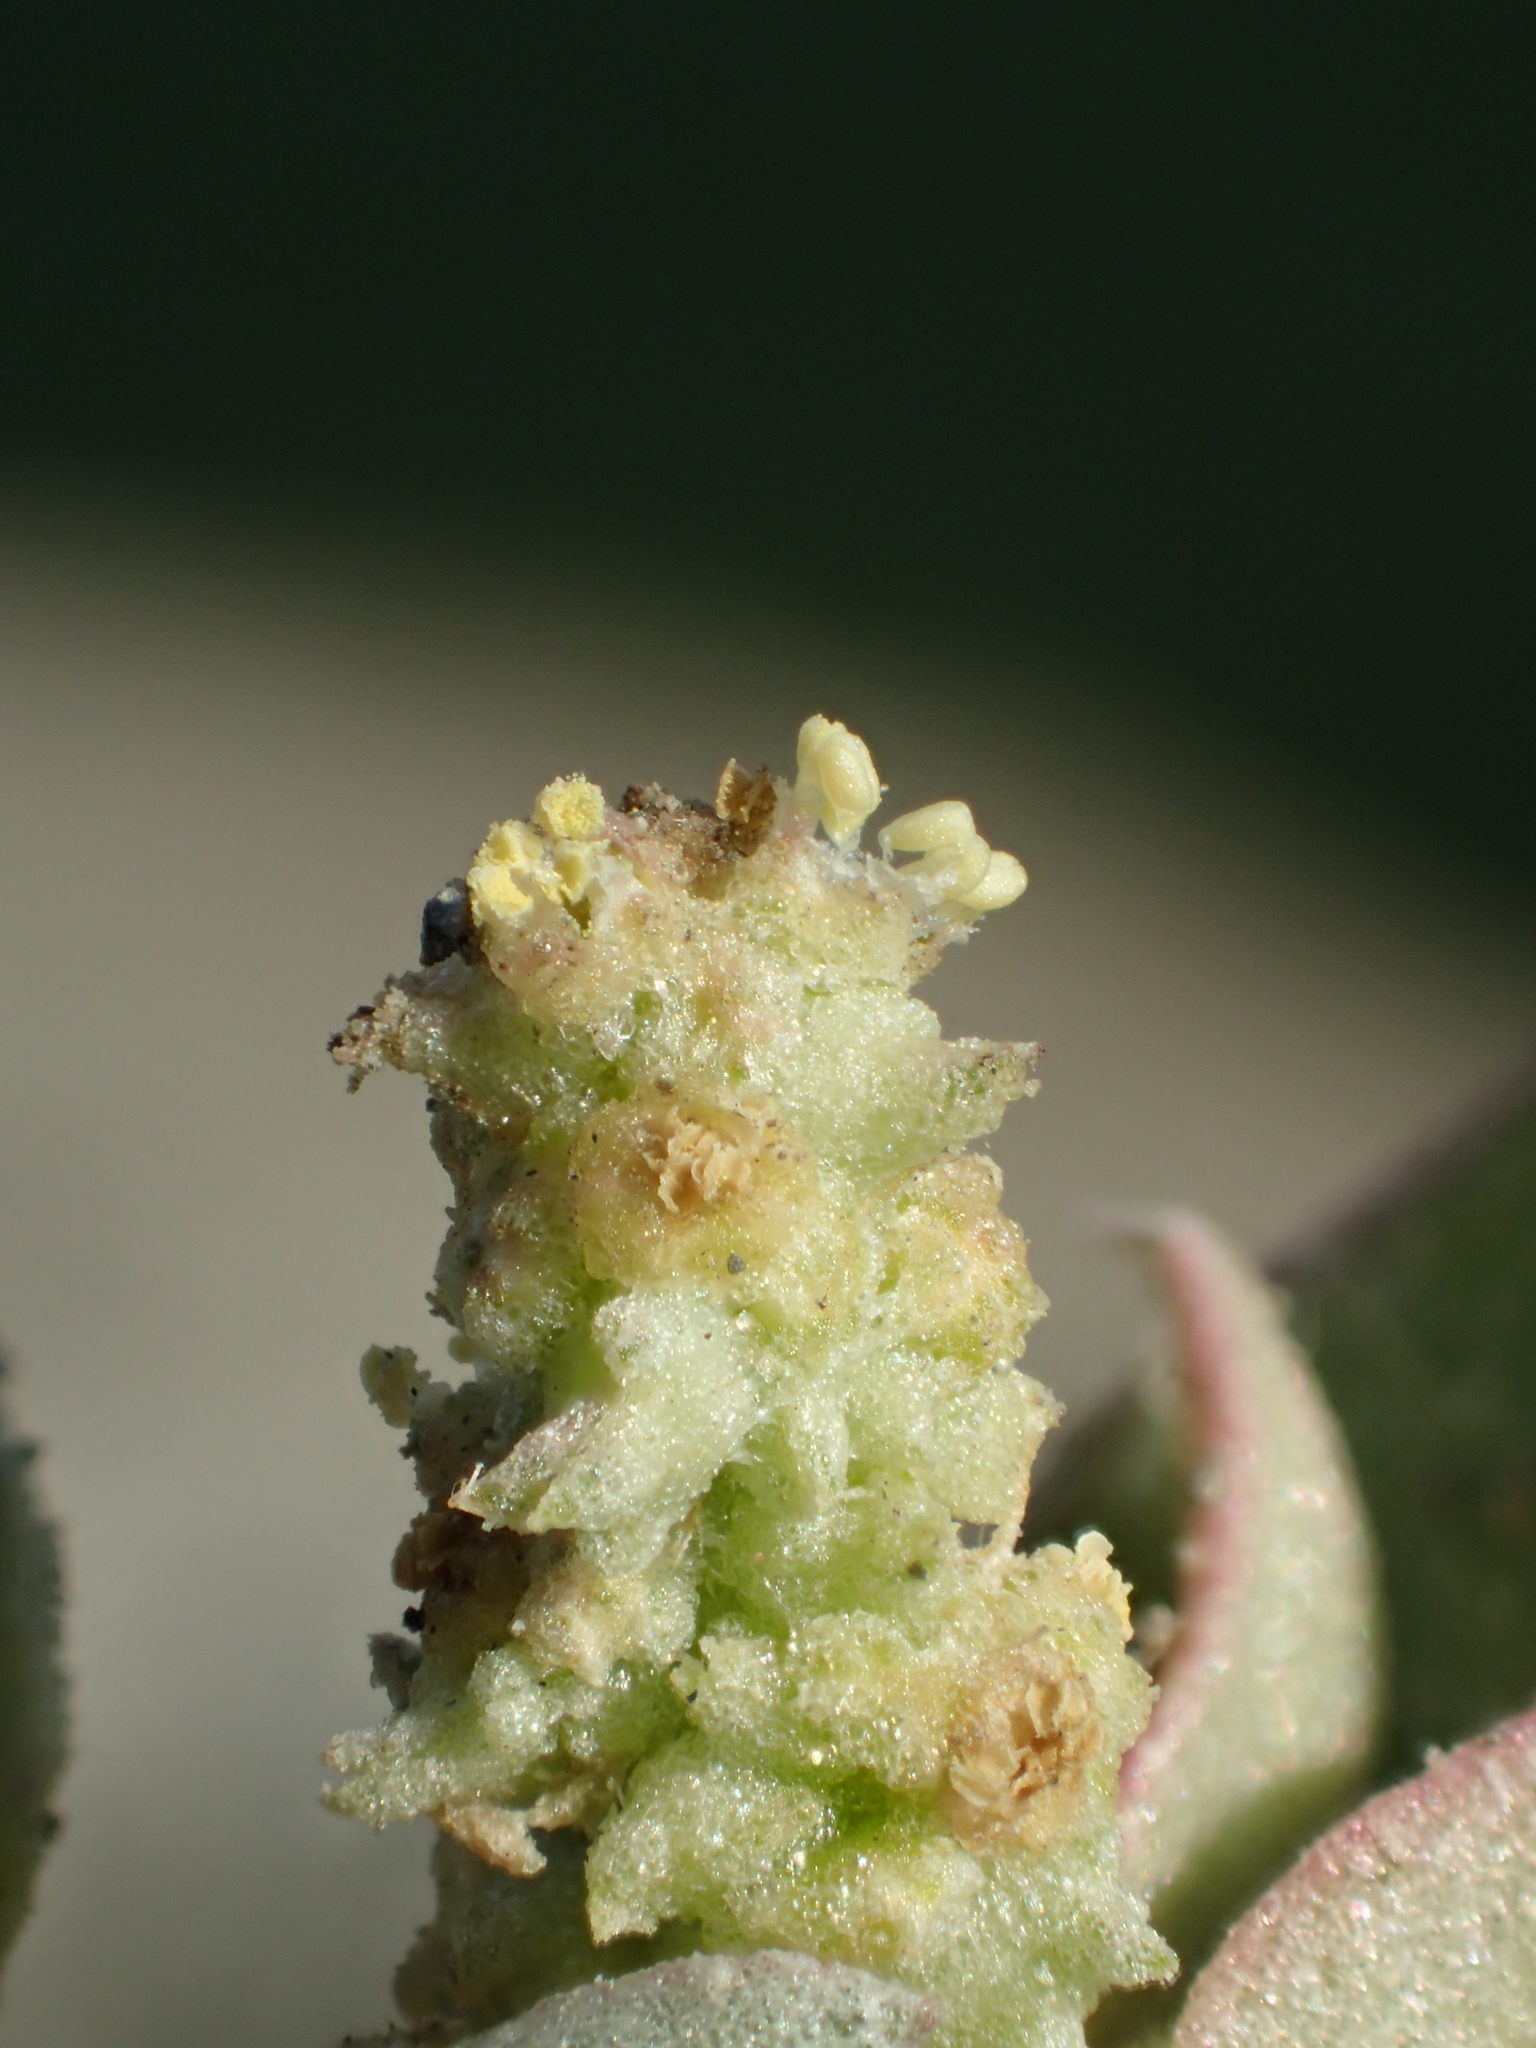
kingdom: Plantae
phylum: Tracheophyta
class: Magnoliopsida
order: Caryophyllales
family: Amaranthaceae
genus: Atriplex
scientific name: Atriplex maximowicziana
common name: Maximowicz's saltbush
